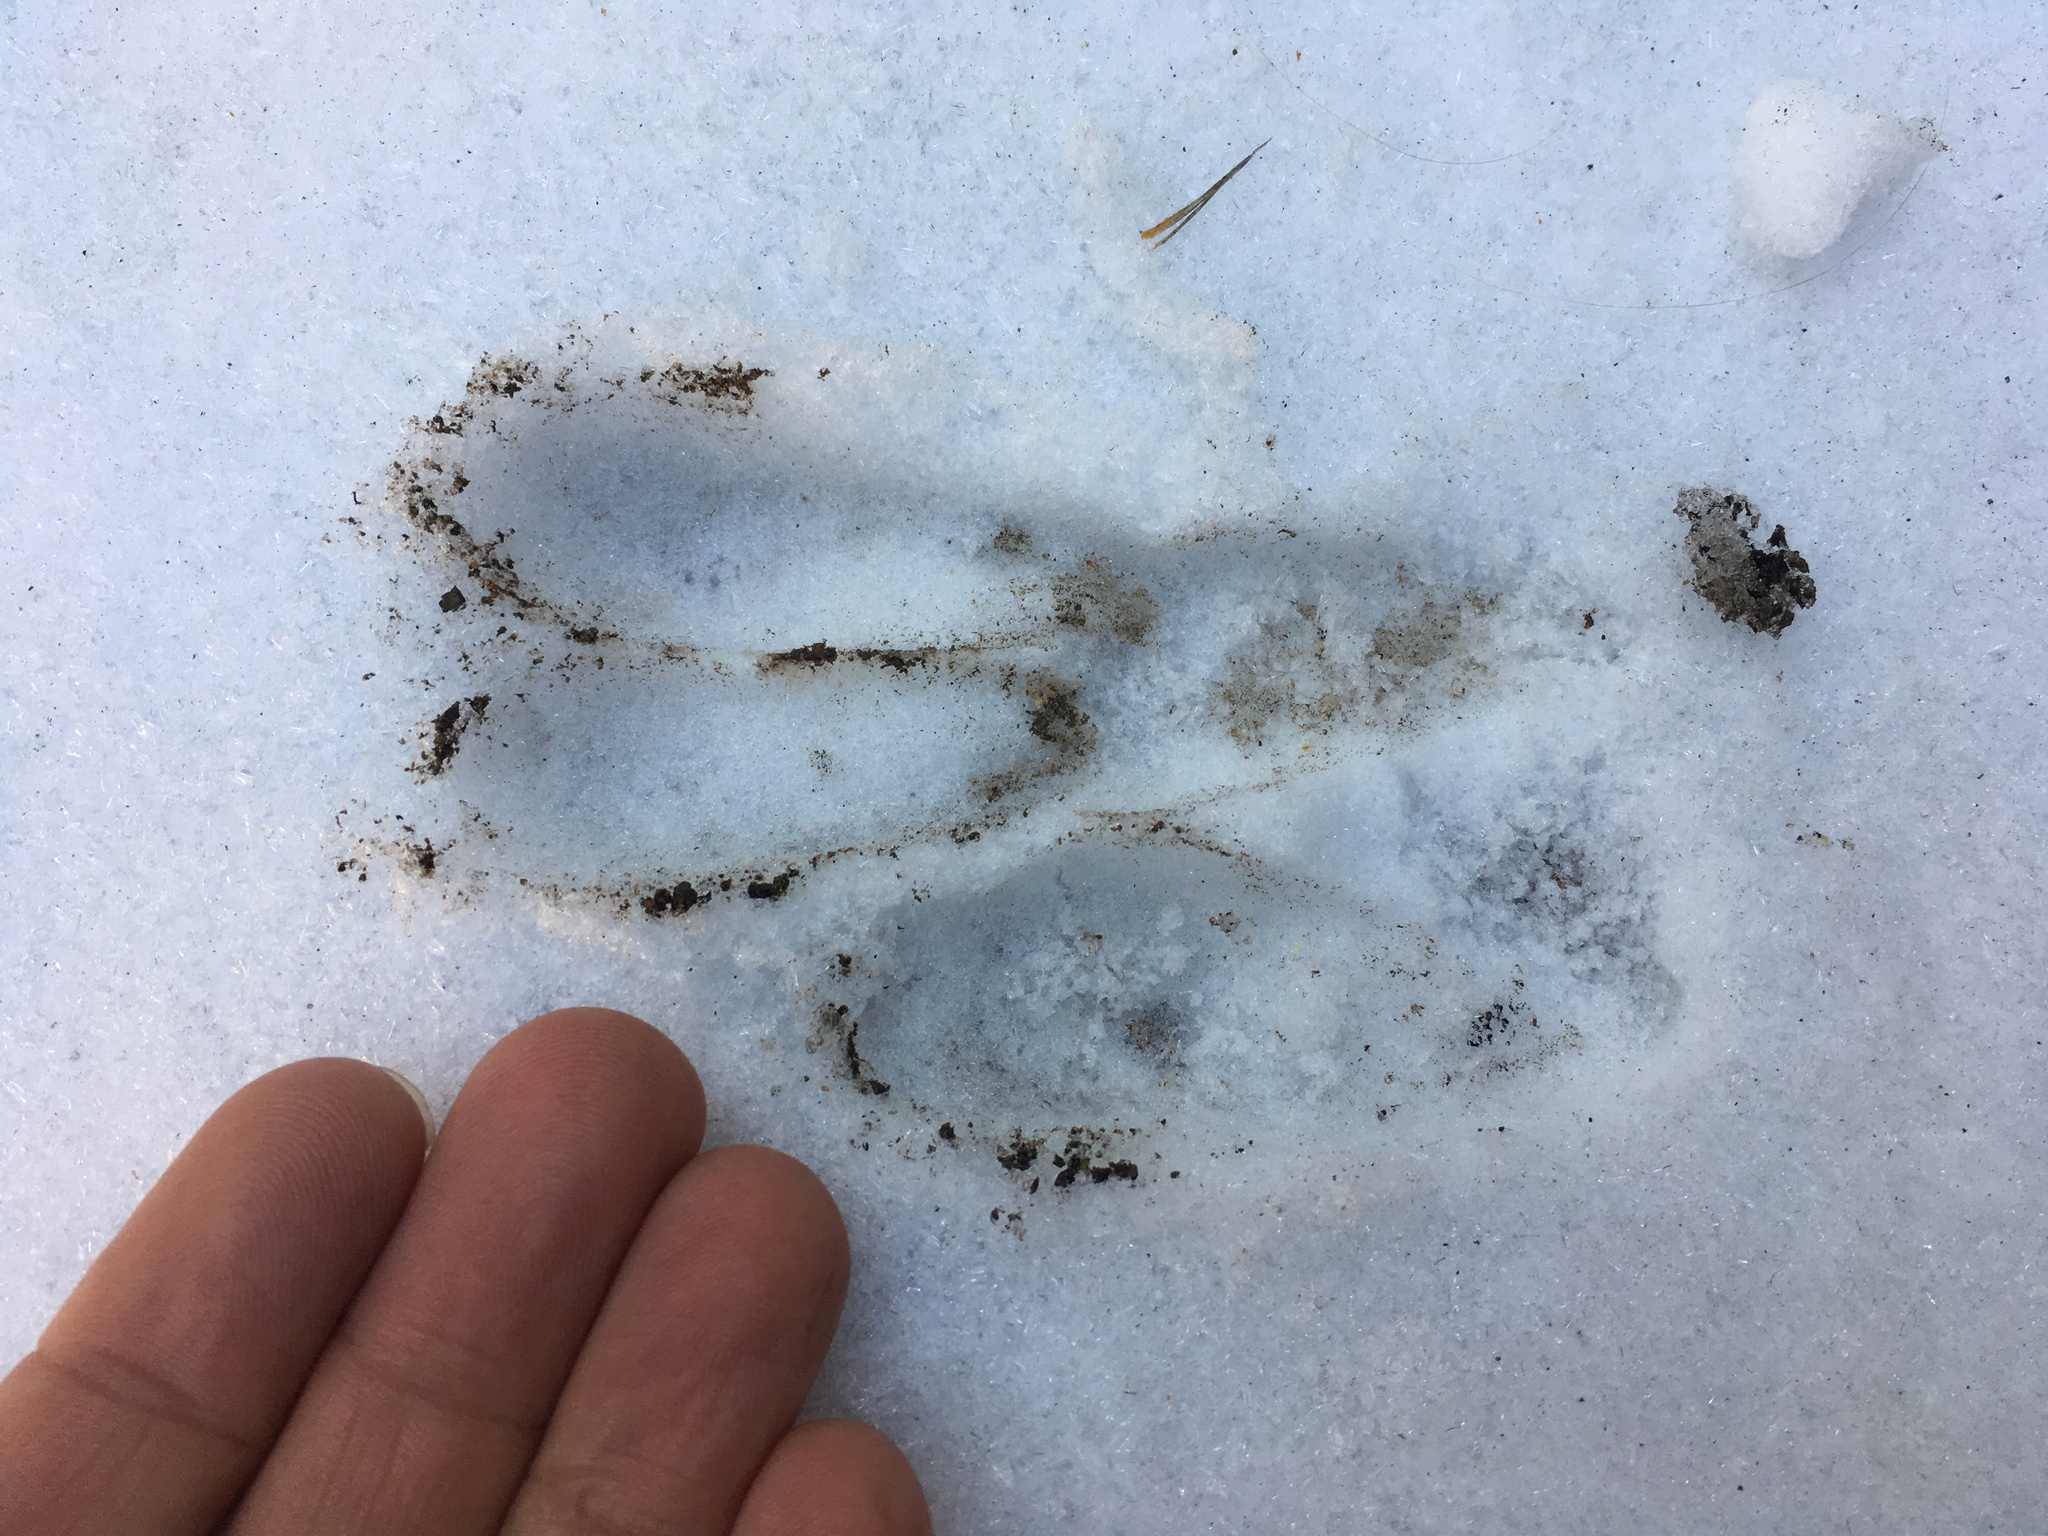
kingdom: Animalia
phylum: Chordata
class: Mammalia
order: Artiodactyla
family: Cervidae
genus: Odocoileus
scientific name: Odocoileus hemionus
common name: Mule deer
